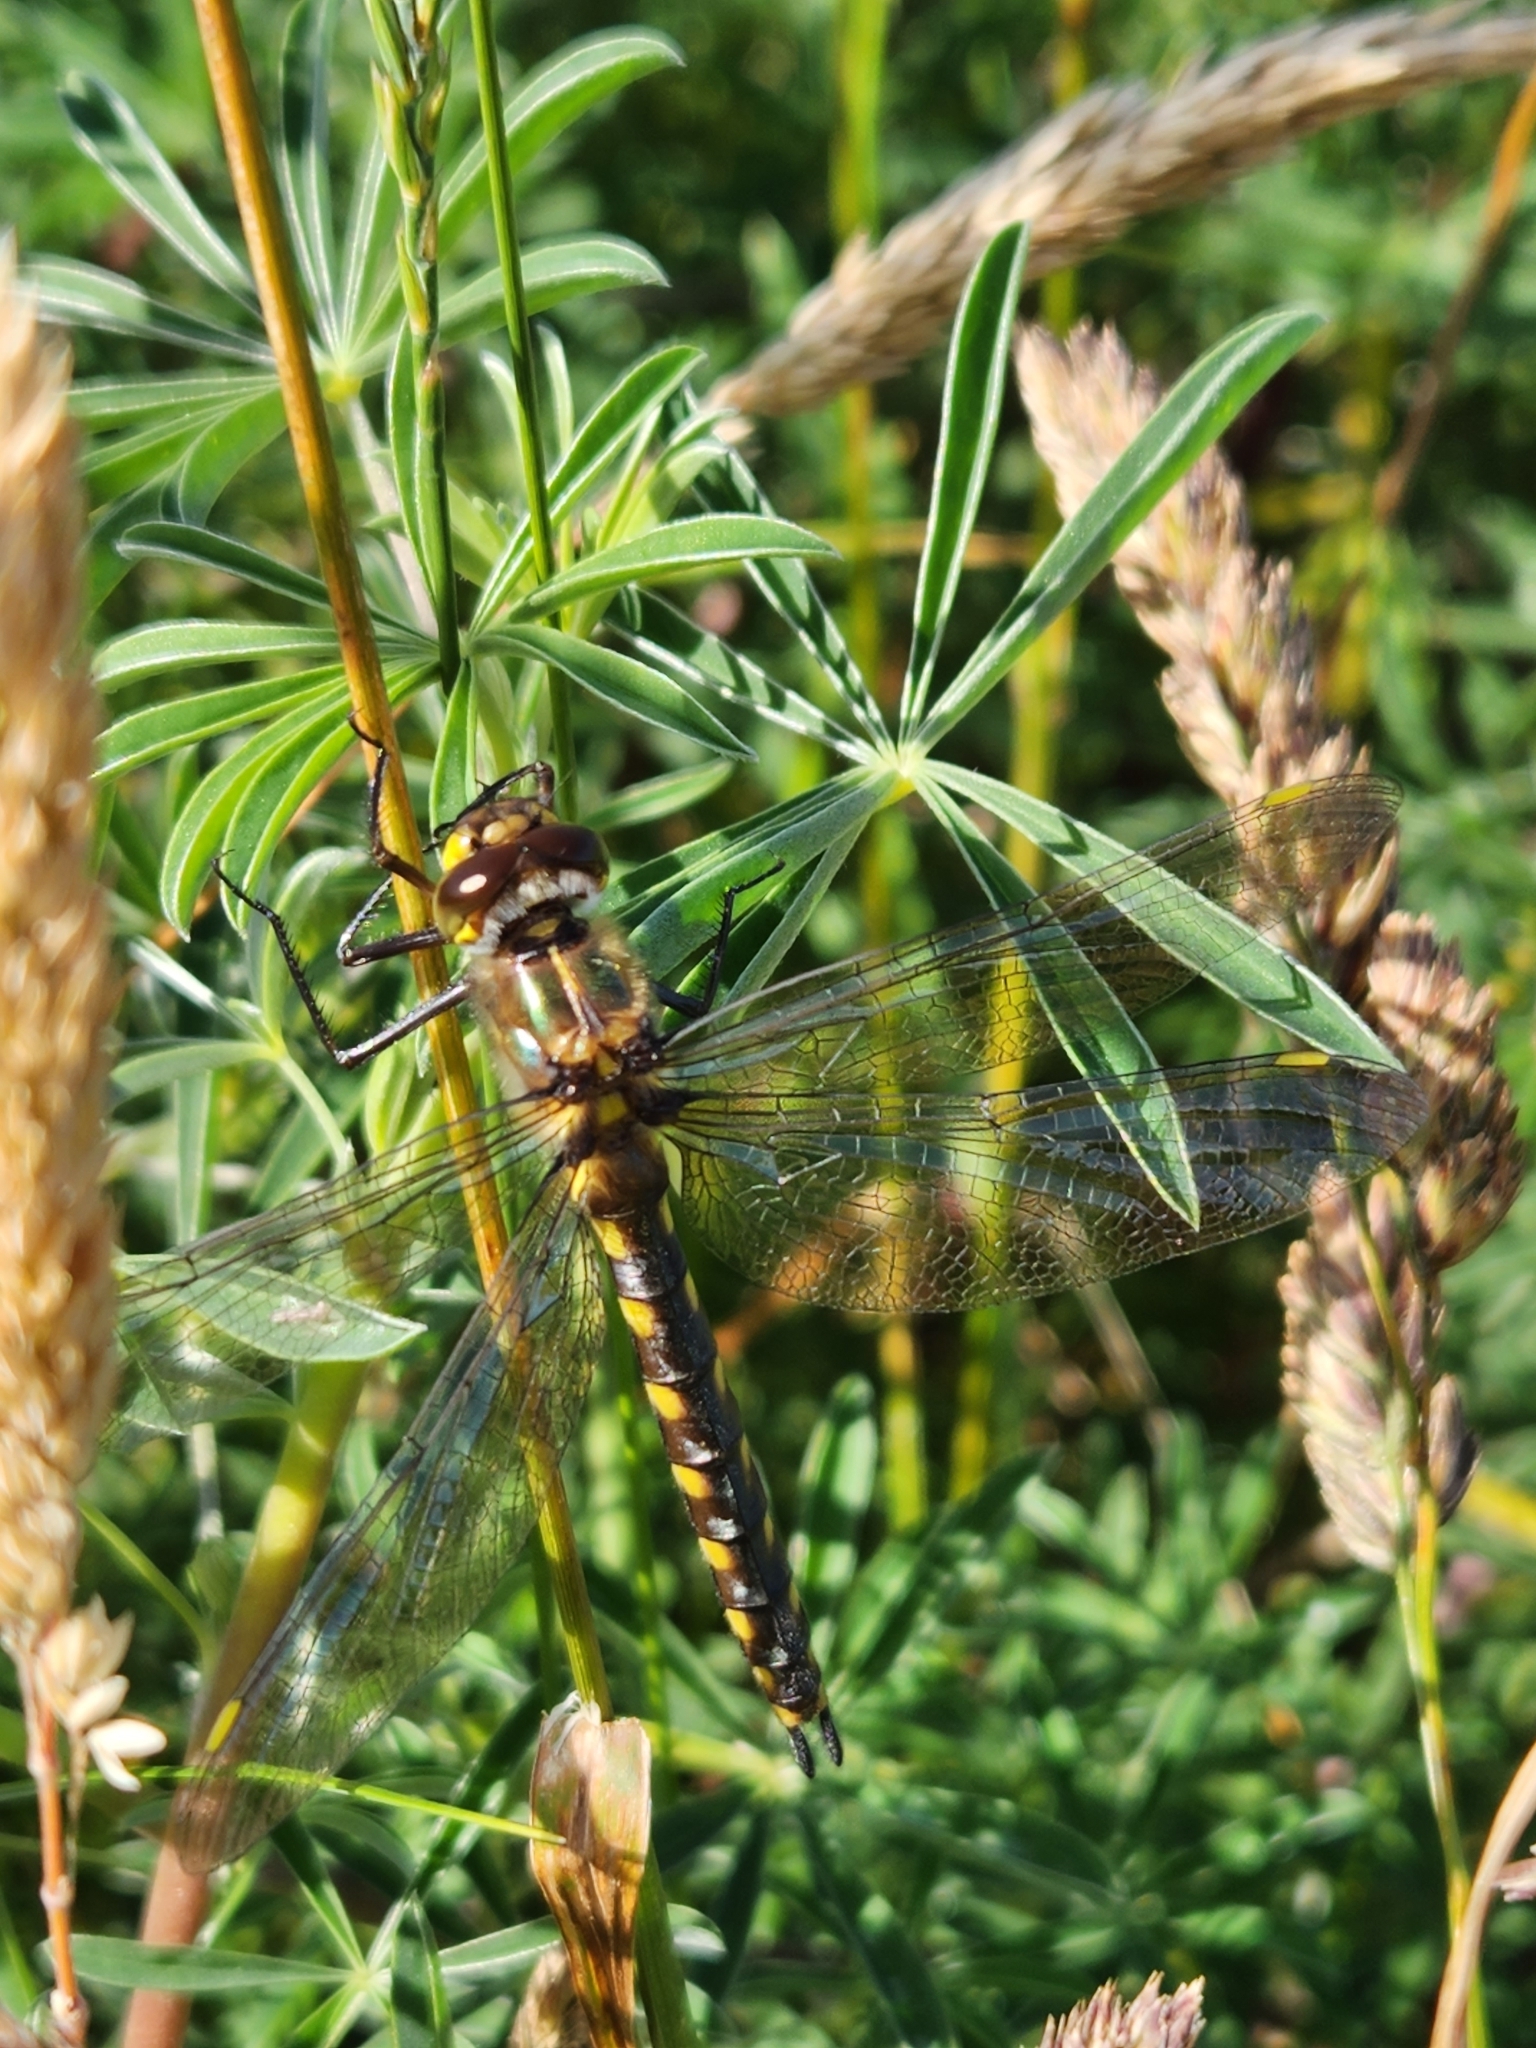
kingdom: Animalia
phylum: Arthropoda
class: Insecta
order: Odonata
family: Corduliidae
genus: Procordulia
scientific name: Procordulia grayi
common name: Yellow spotted dragonfly
